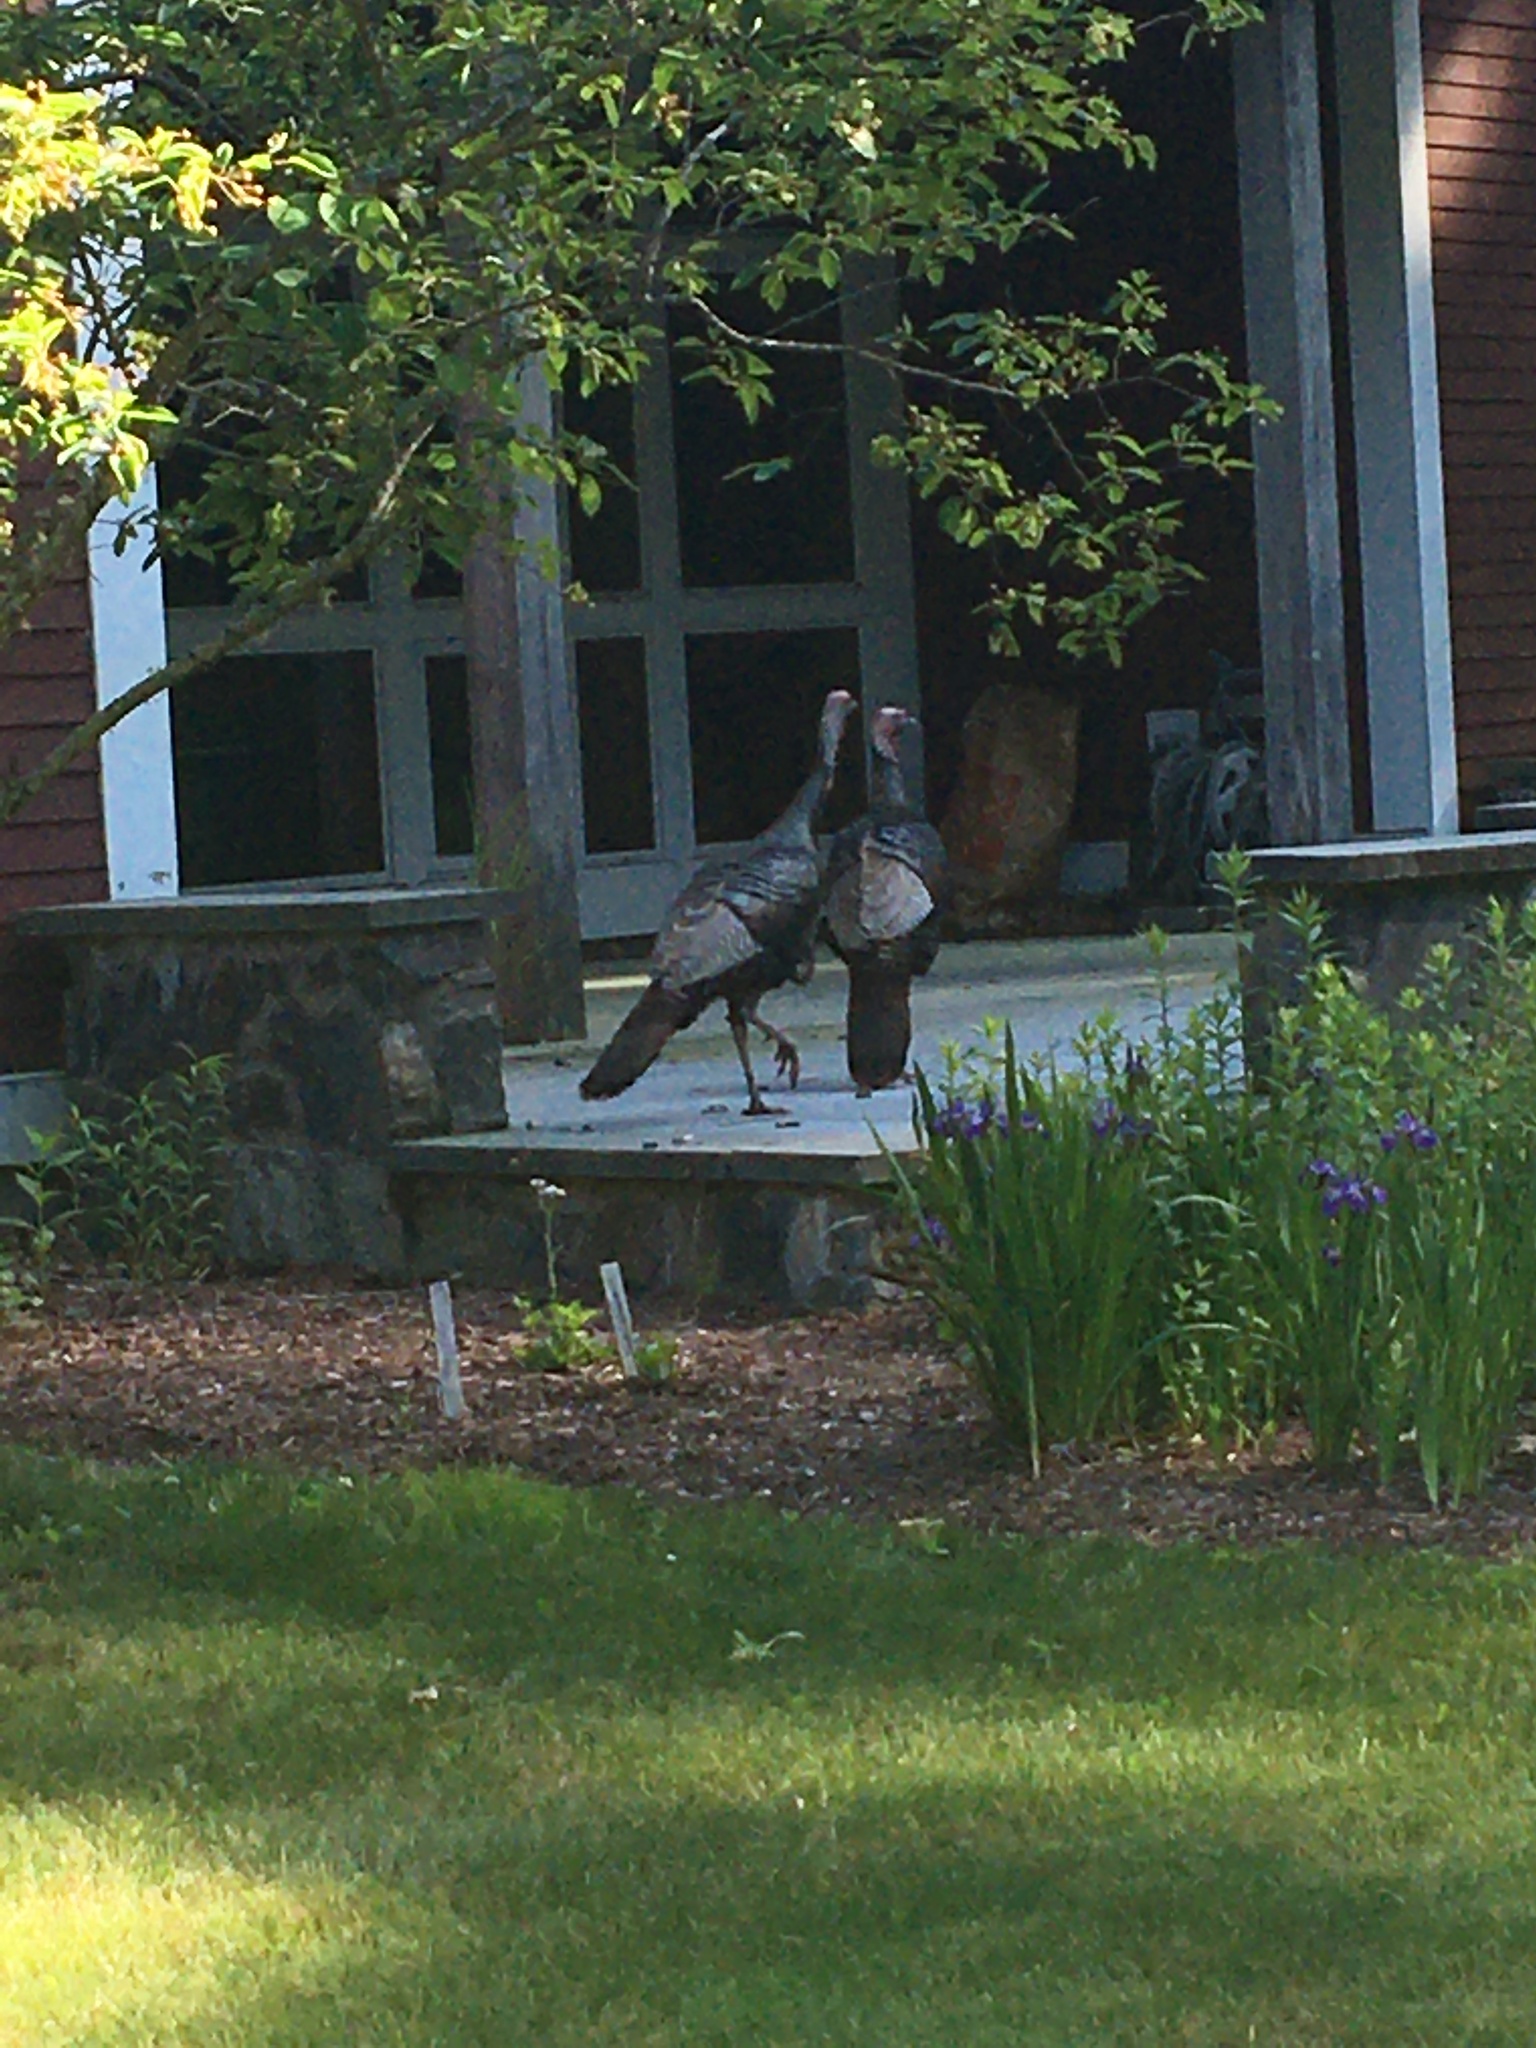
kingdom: Animalia
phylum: Chordata
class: Aves
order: Galliformes
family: Phasianidae
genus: Meleagris
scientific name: Meleagris gallopavo
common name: Wild turkey
